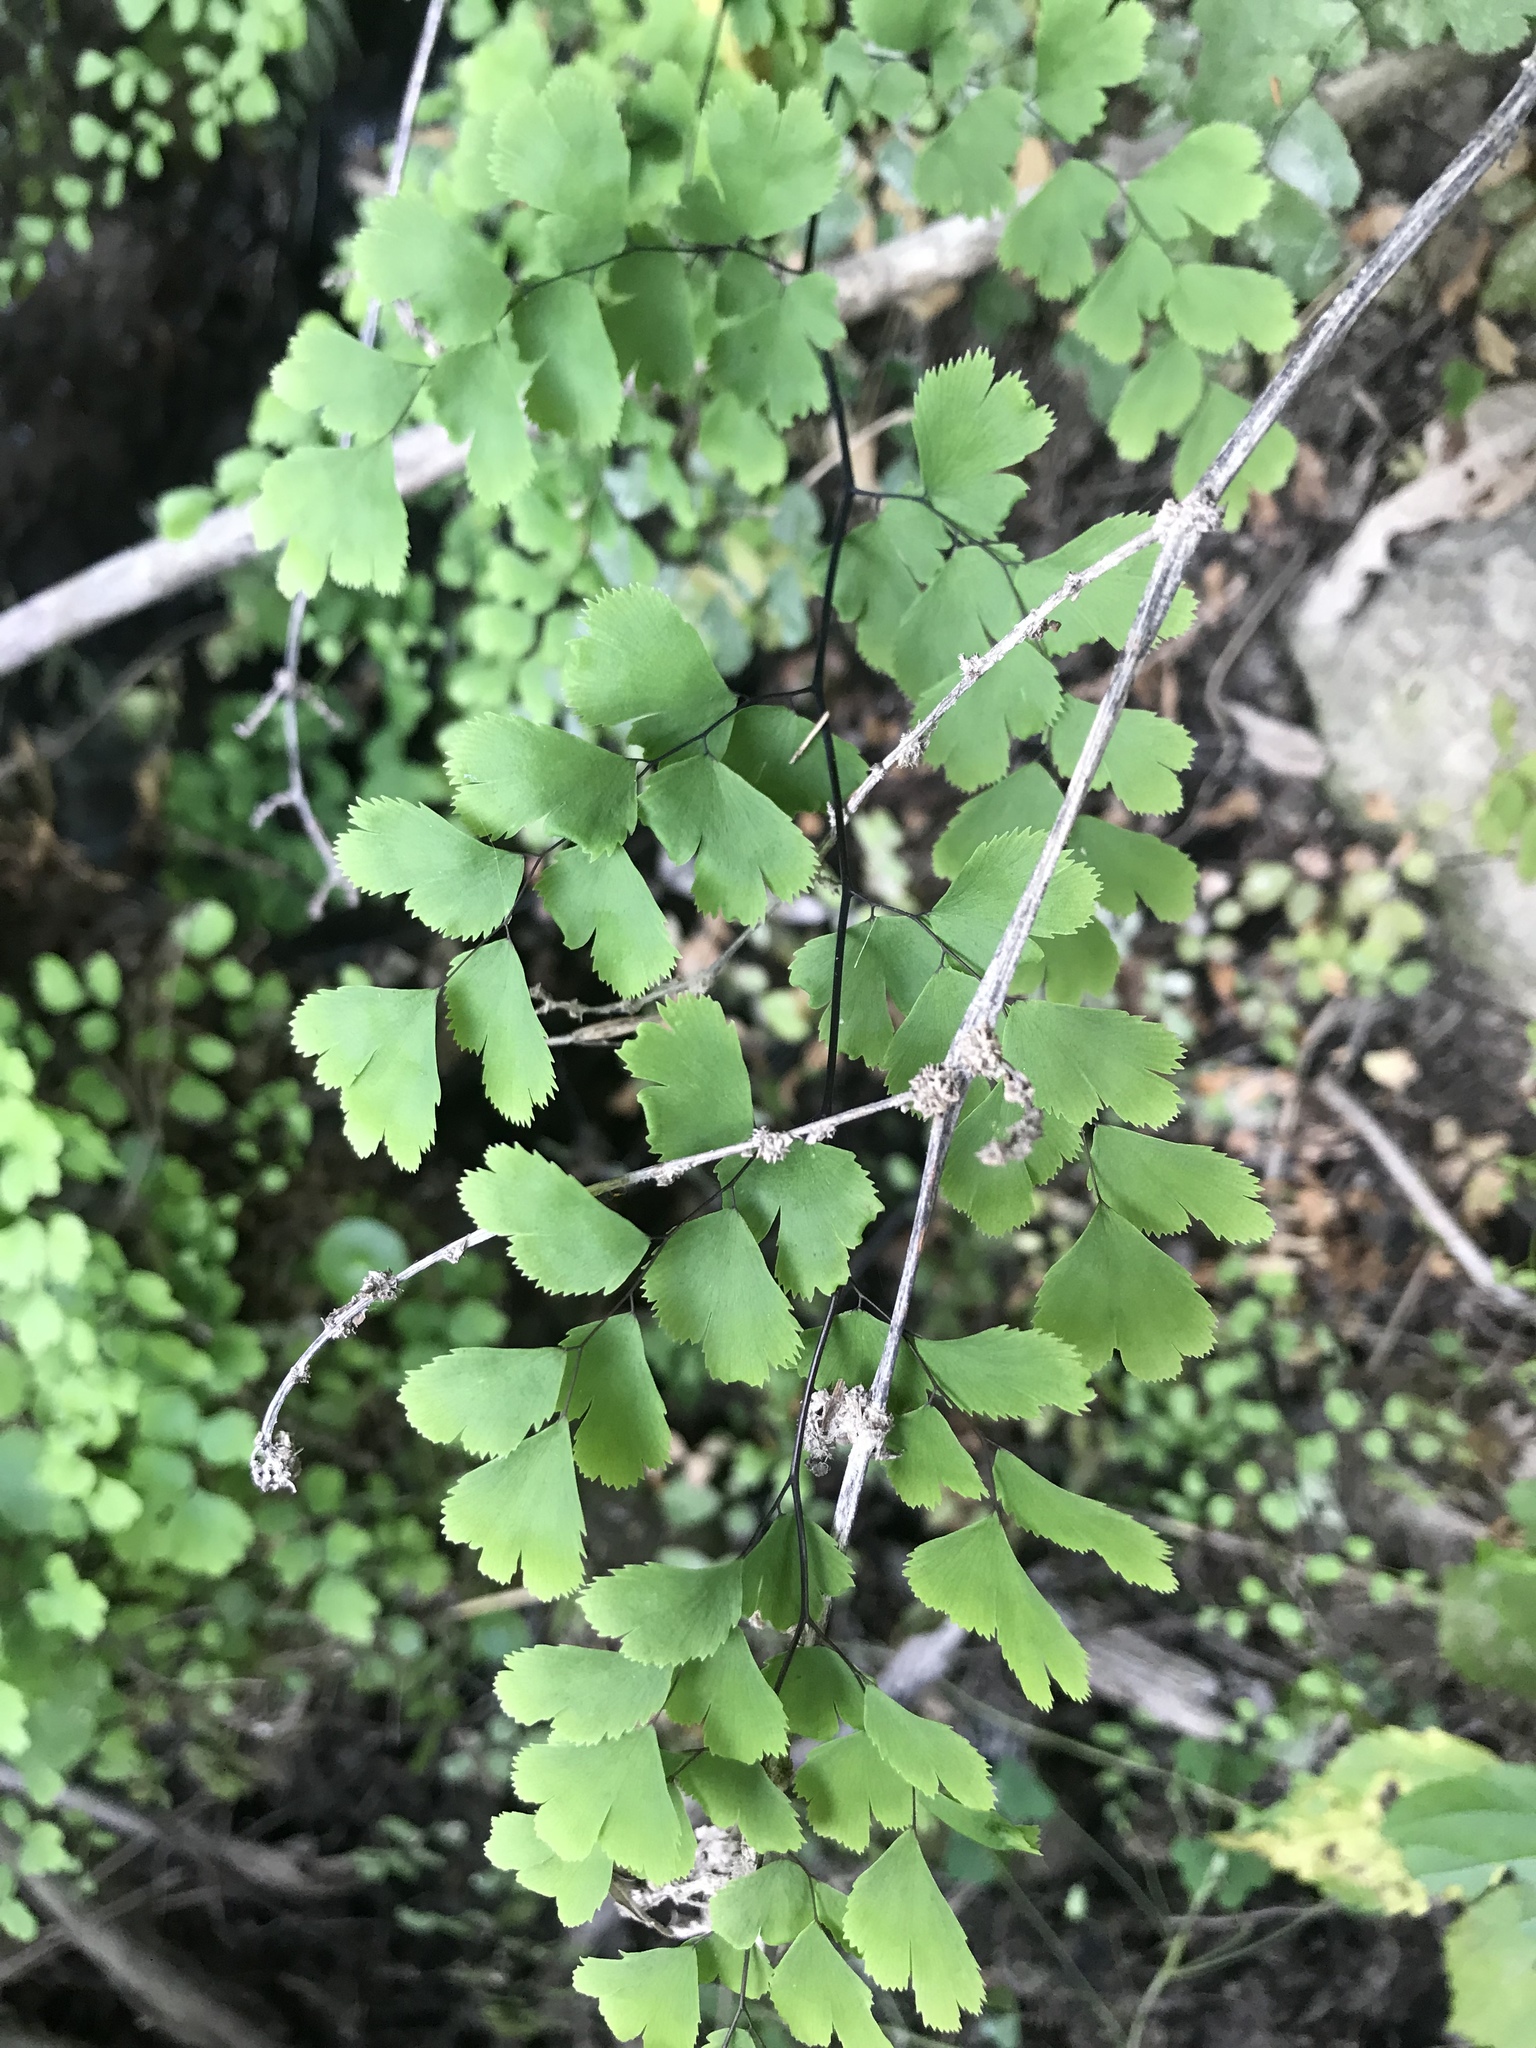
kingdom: Plantae
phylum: Tracheophyta
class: Polypodiopsida
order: Polypodiales
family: Pteridaceae
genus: Adiantum
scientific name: Adiantum capillus-veneris
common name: Maidenhair fern
